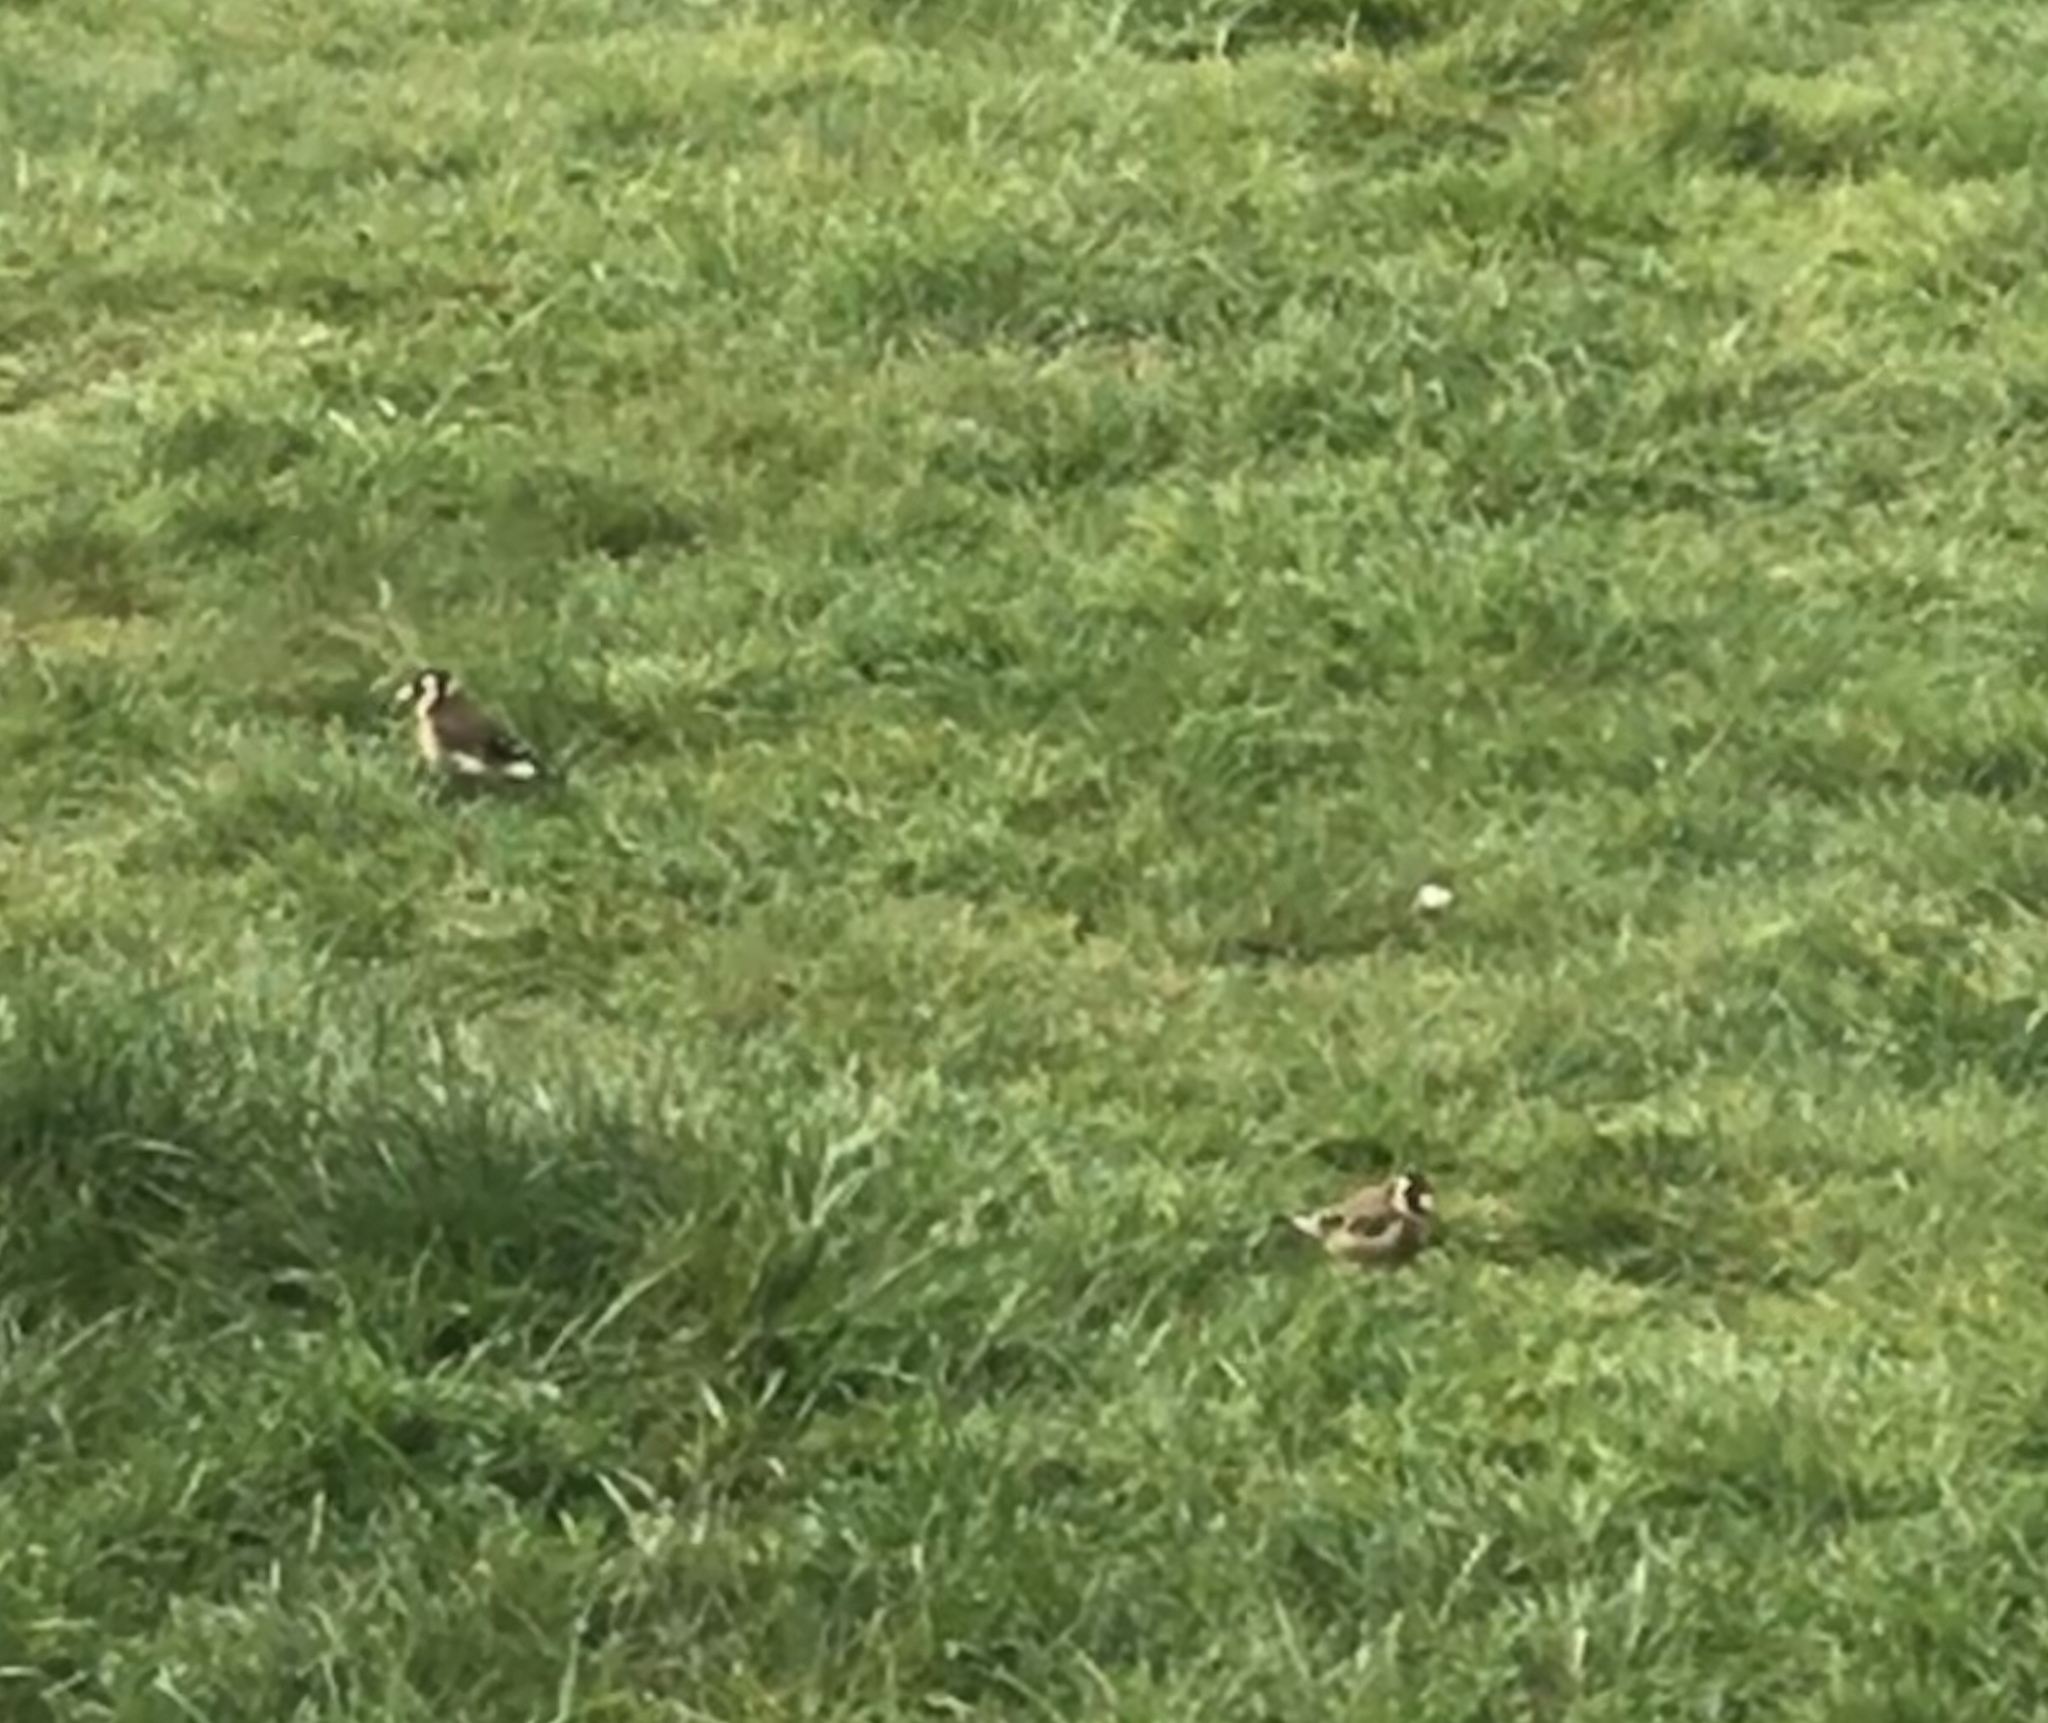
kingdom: Animalia
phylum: Chordata
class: Aves
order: Passeriformes
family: Fringillidae
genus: Carduelis
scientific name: Carduelis carduelis
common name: European goldfinch
